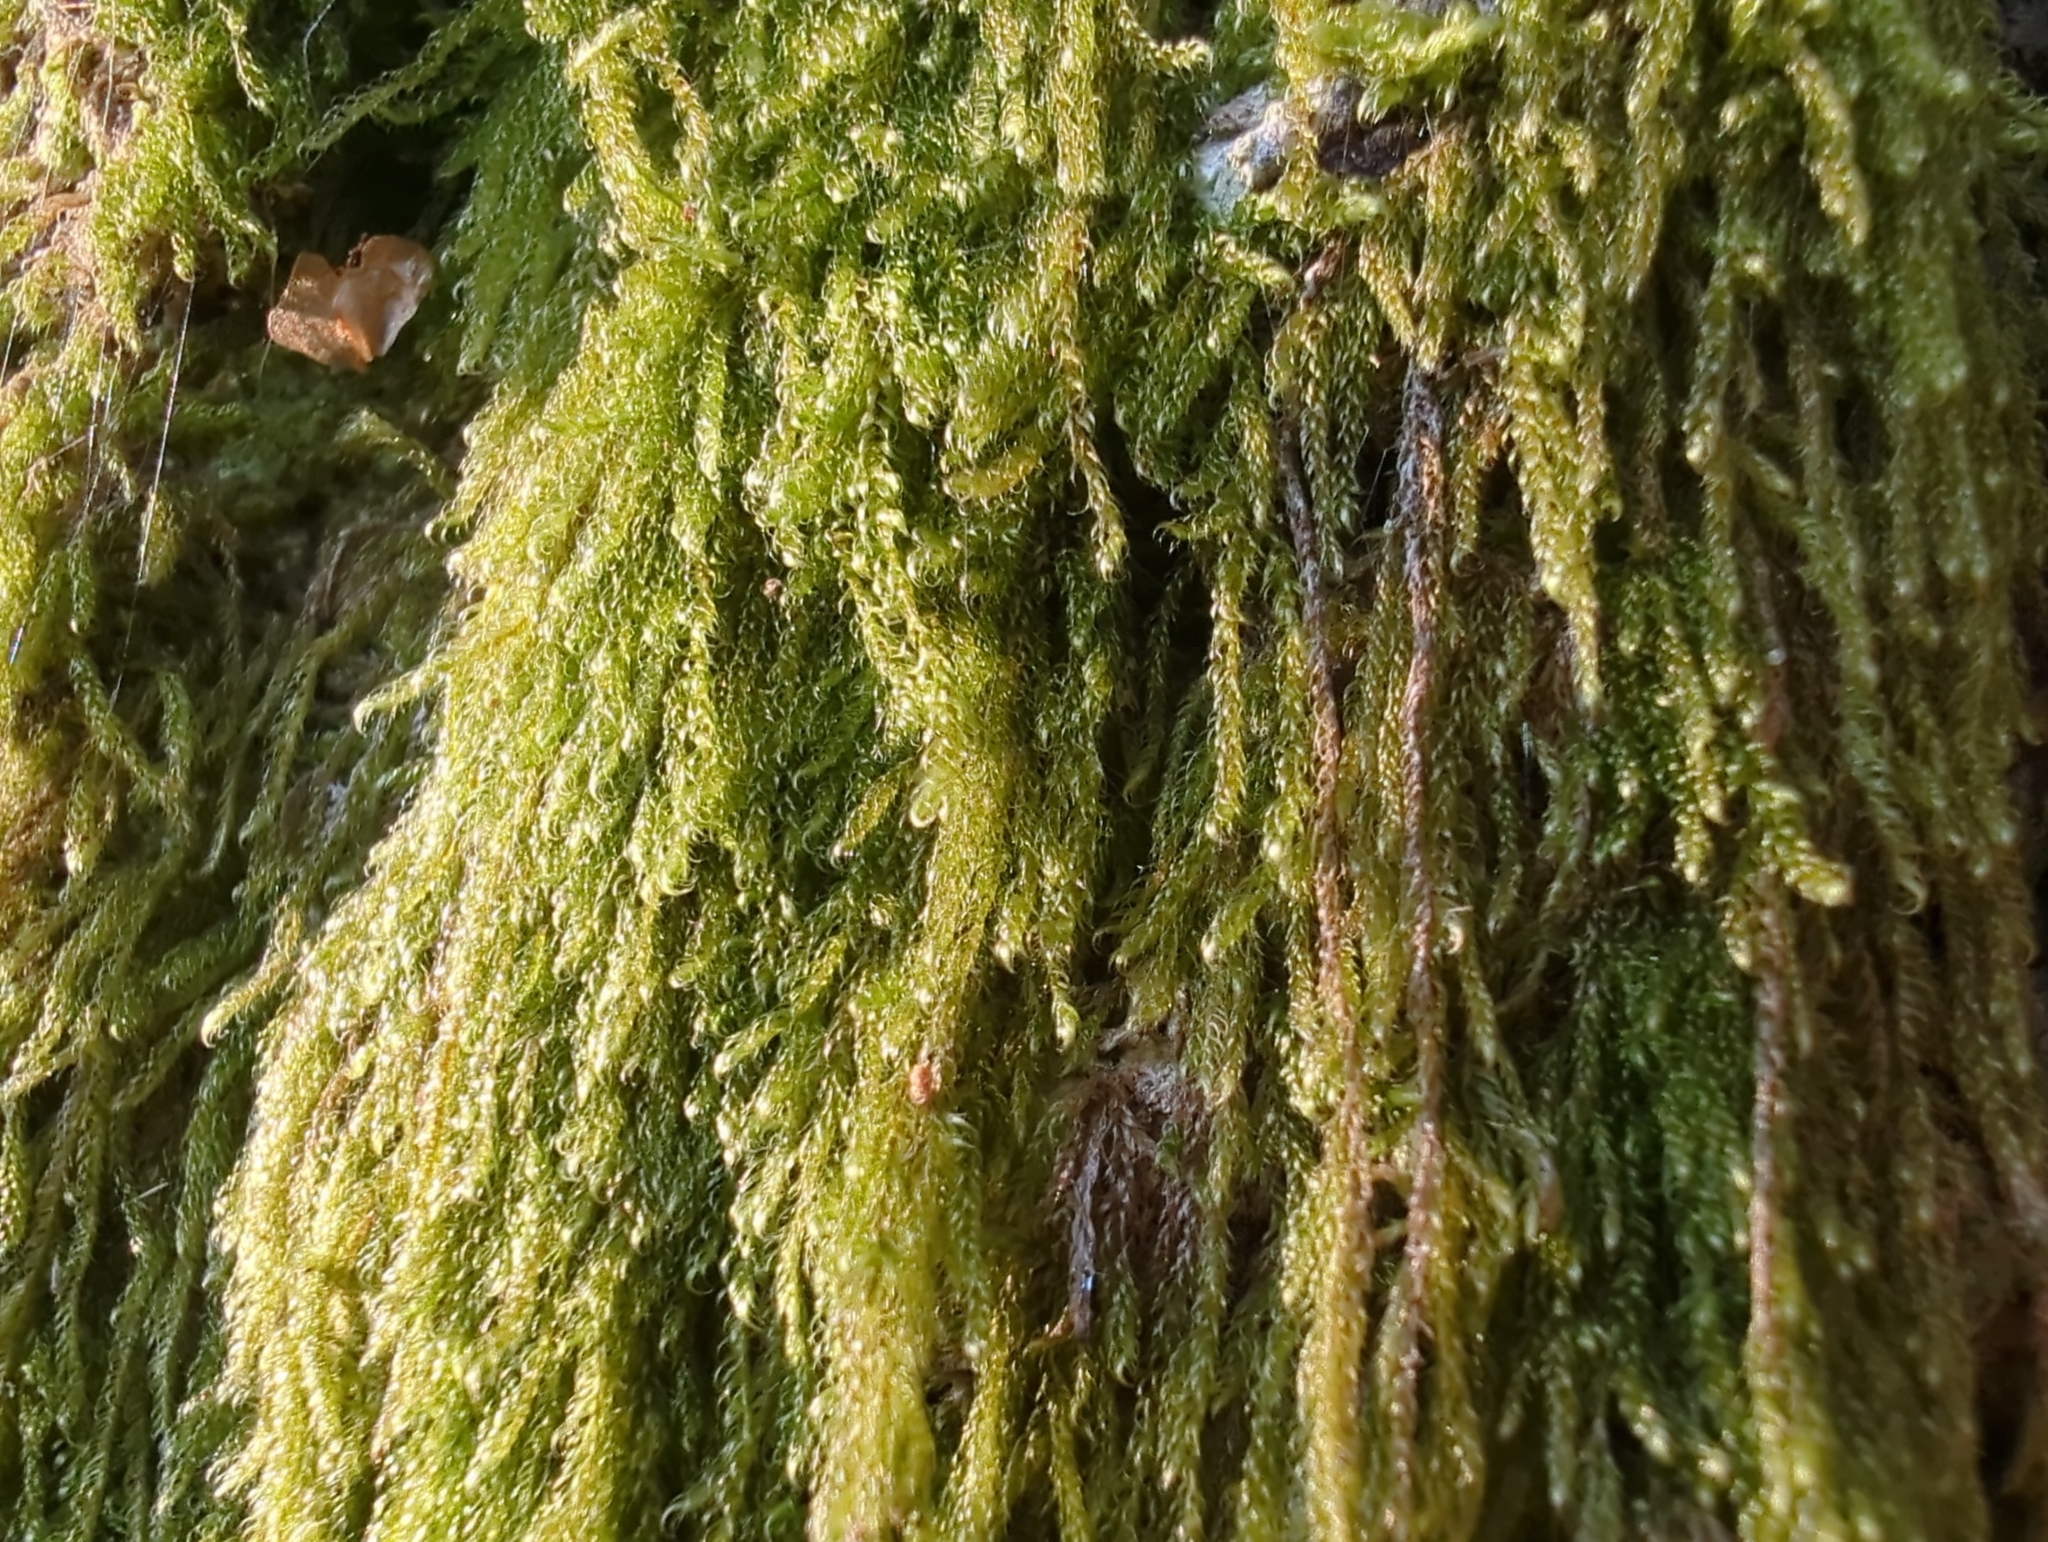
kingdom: Plantae
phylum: Bryophyta
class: Bryopsida
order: Hypnales
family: Pylaisiadelphaceae
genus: Trochophyllohypnum
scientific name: Trochophyllohypnum circinale
